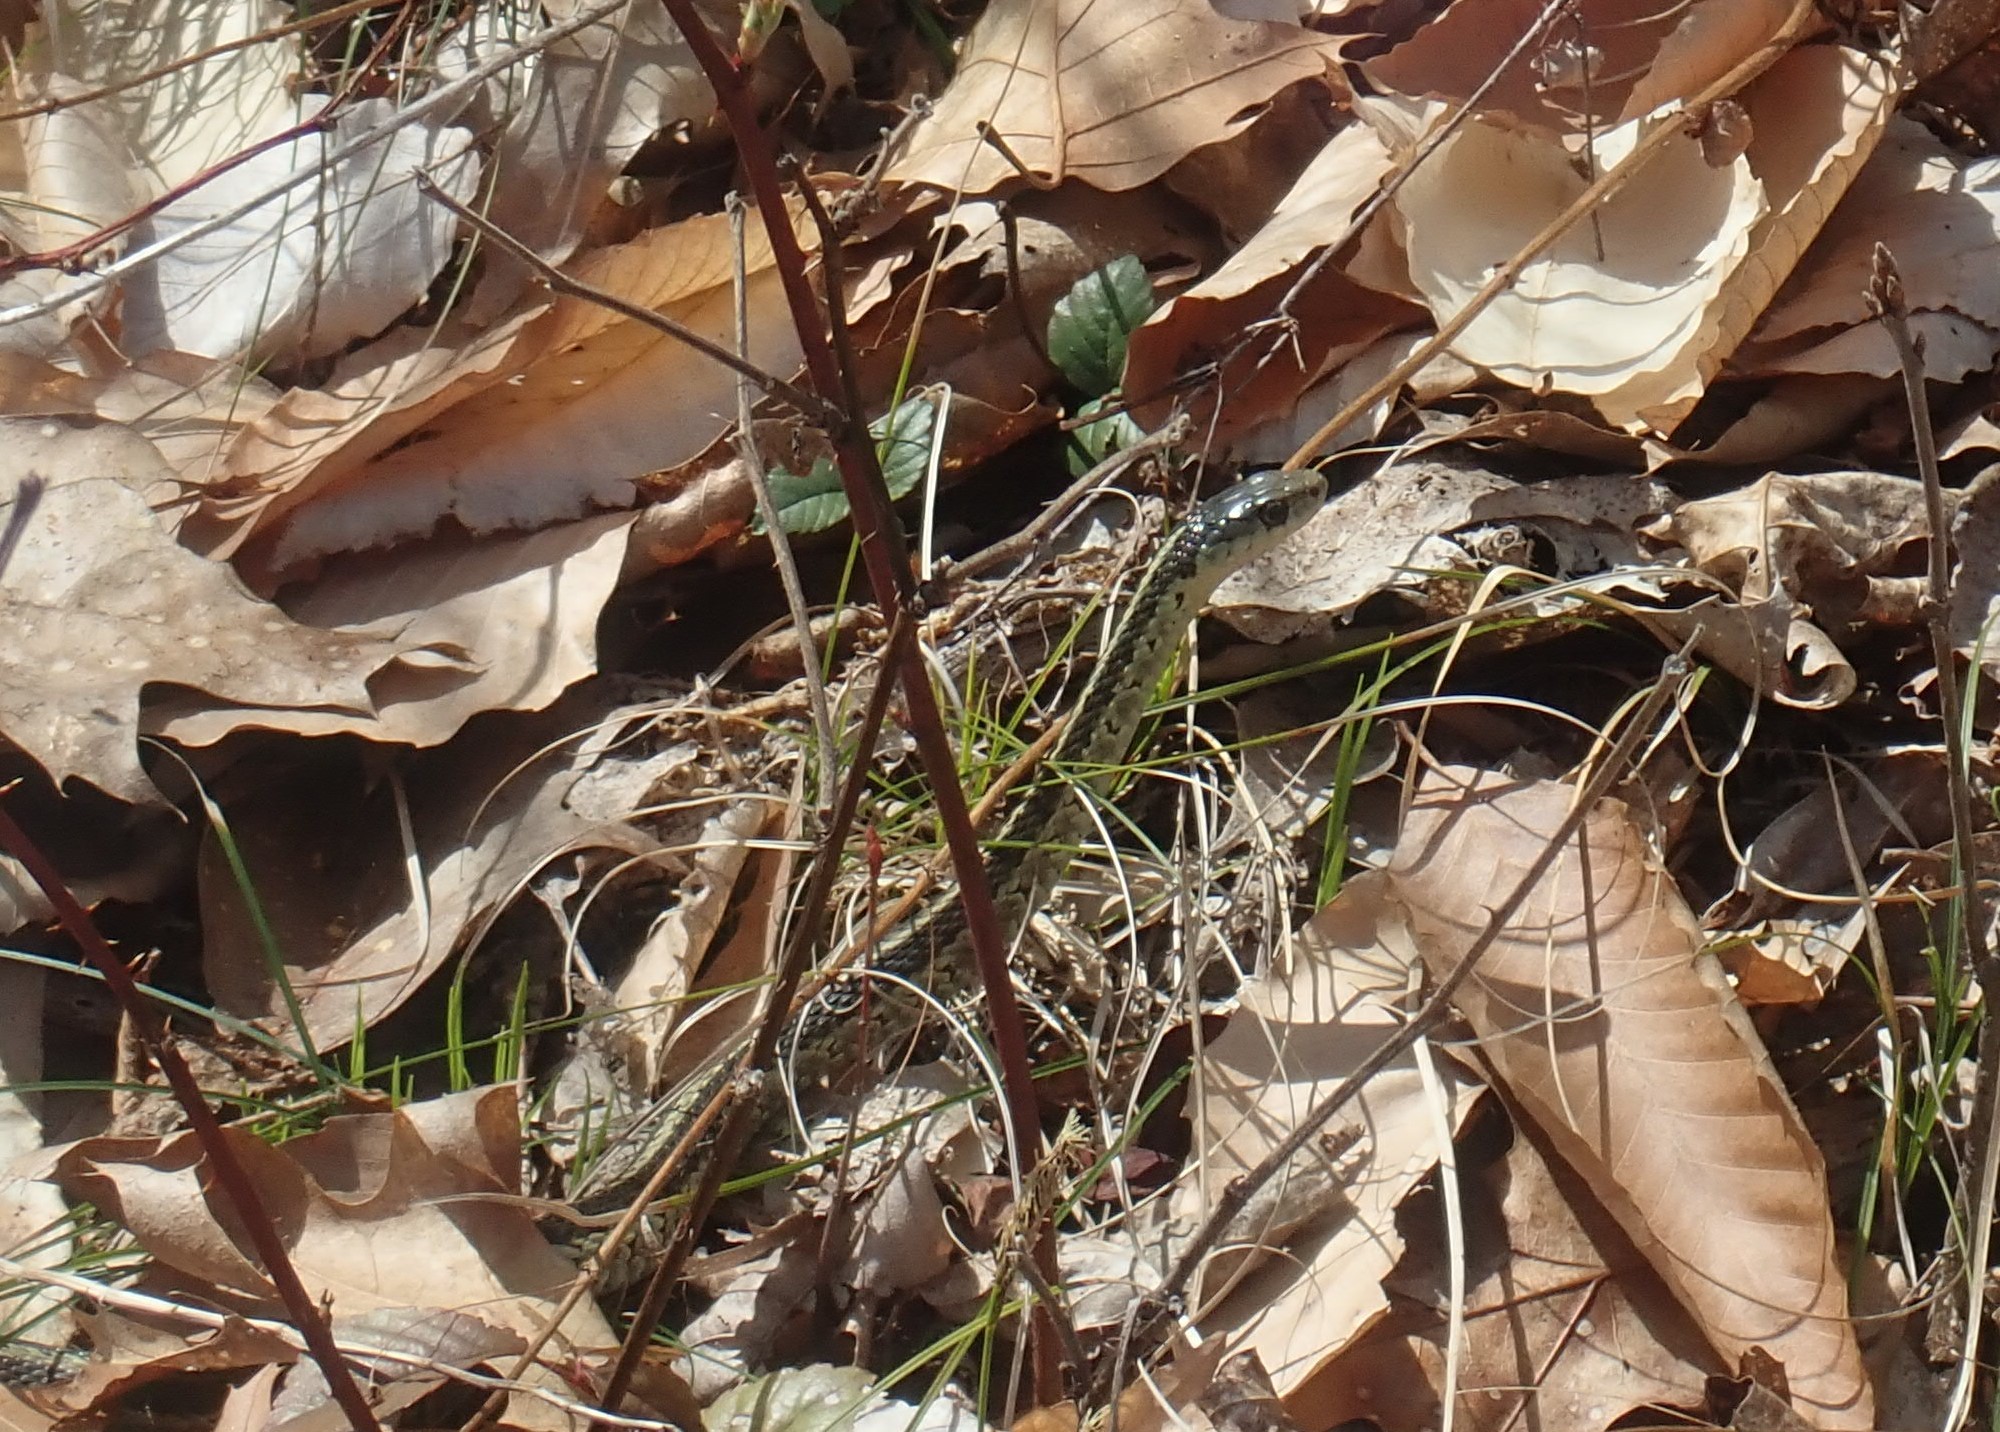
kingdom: Animalia
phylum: Chordata
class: Squamata
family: Colubridae
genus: Thamnophis
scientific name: Thamnophis sirtalis
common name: Common garter snake
